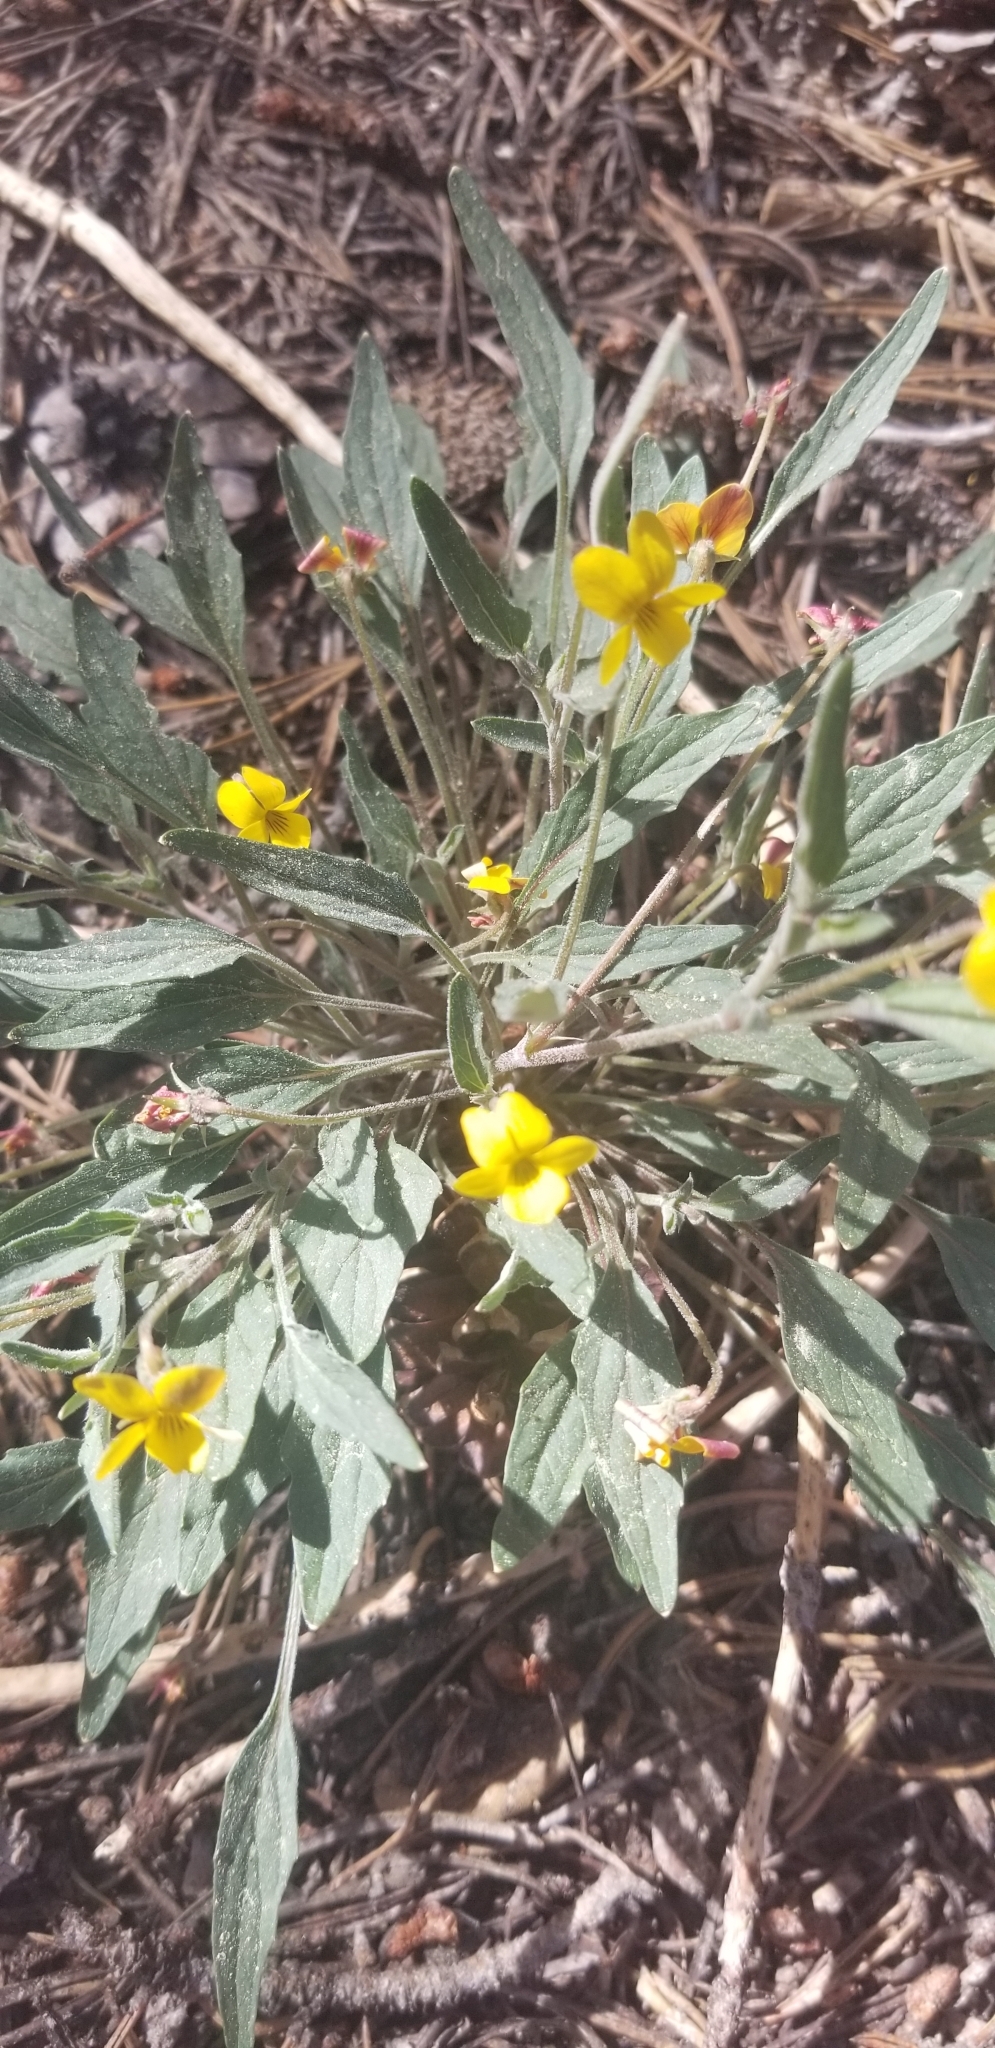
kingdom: Plantae
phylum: Tracheophyta
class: Magnoliopsida
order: Malpighiales
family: Violaceae
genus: Viola
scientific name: Viola pinetorum
